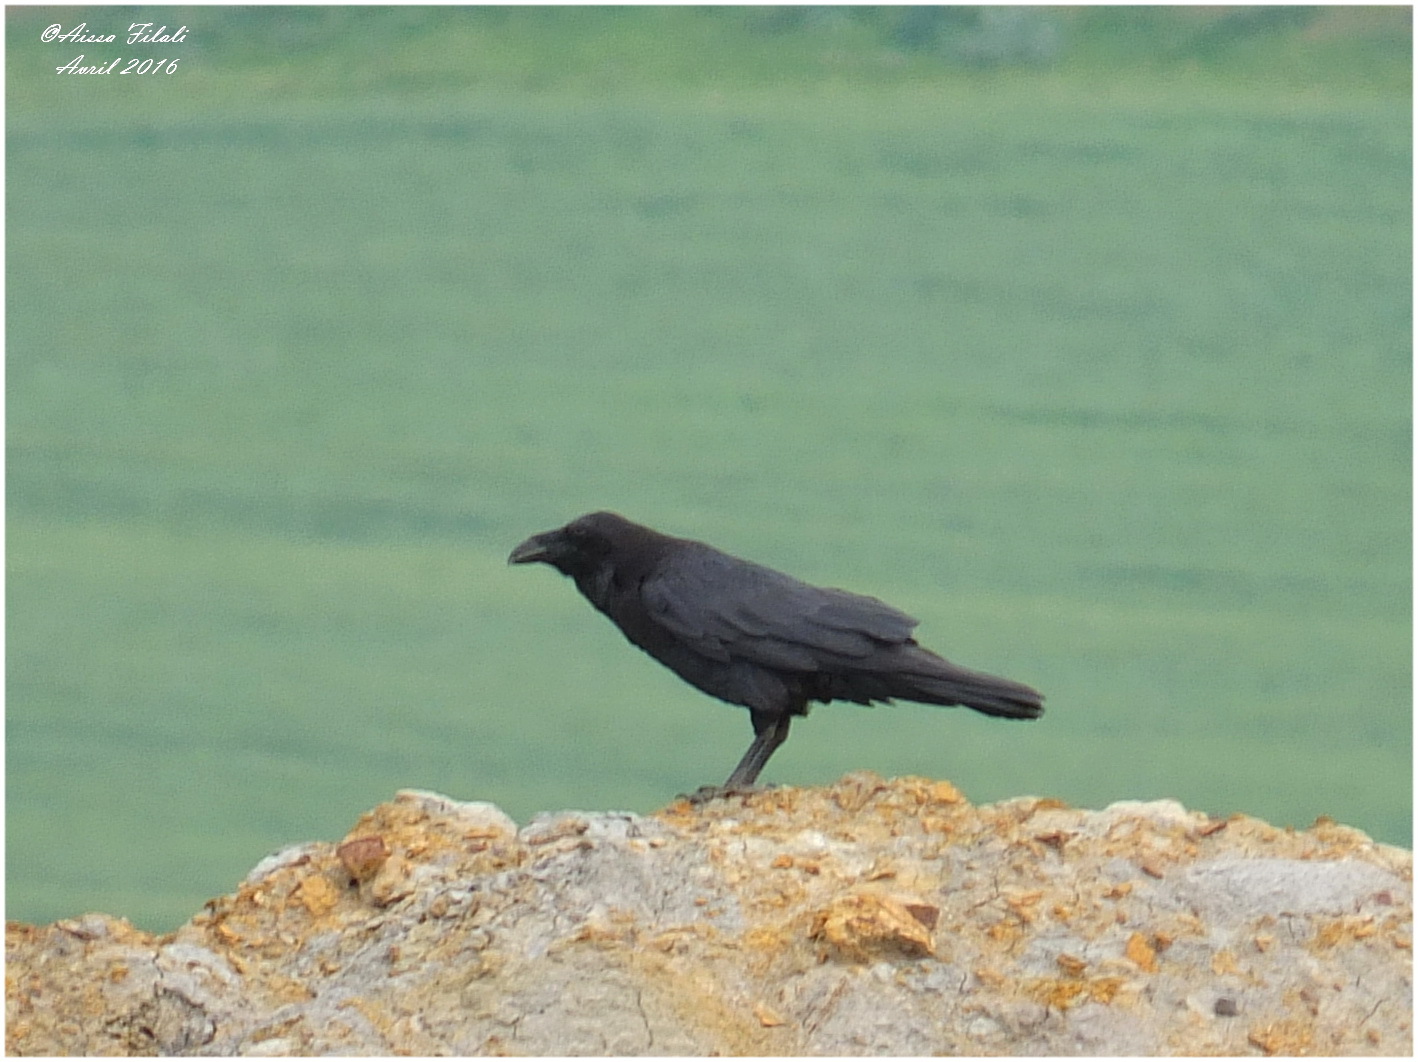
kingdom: Animalia
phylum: Chordata
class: Aves
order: Passeriformes
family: Corvidae
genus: Corvus
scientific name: Corvus corax
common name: Common raven
